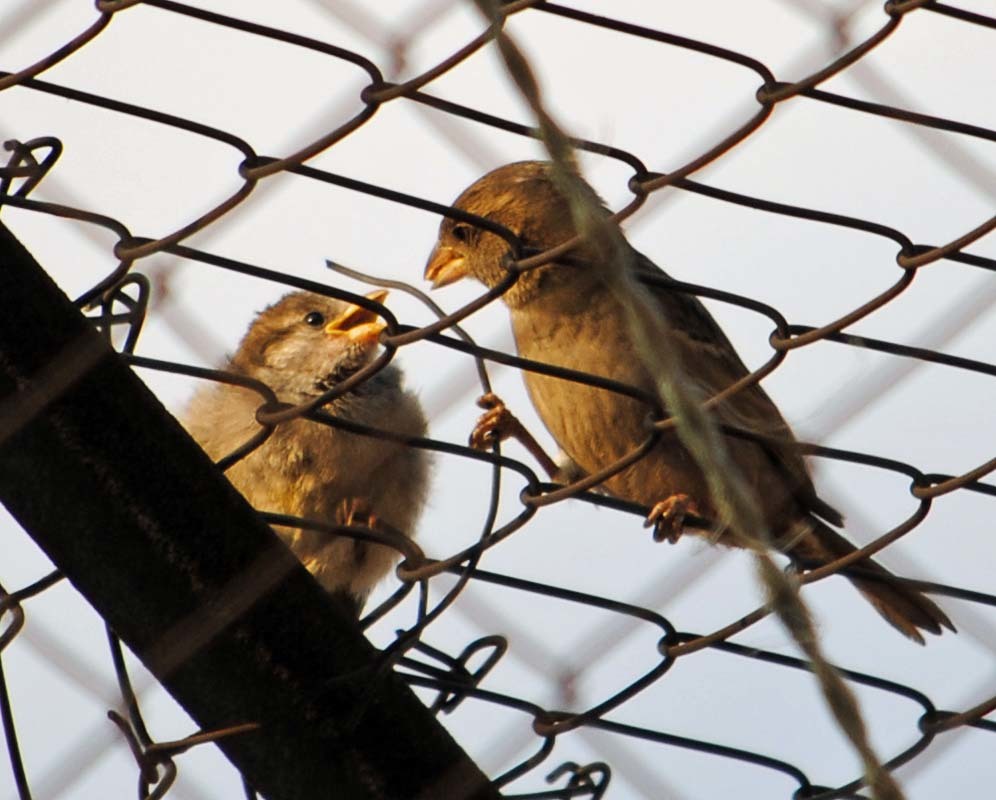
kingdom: Animalia
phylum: Chordata
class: Aves
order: Passeriformes
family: Passeridae
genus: Passer
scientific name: Passer domesticus
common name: House sparrow
